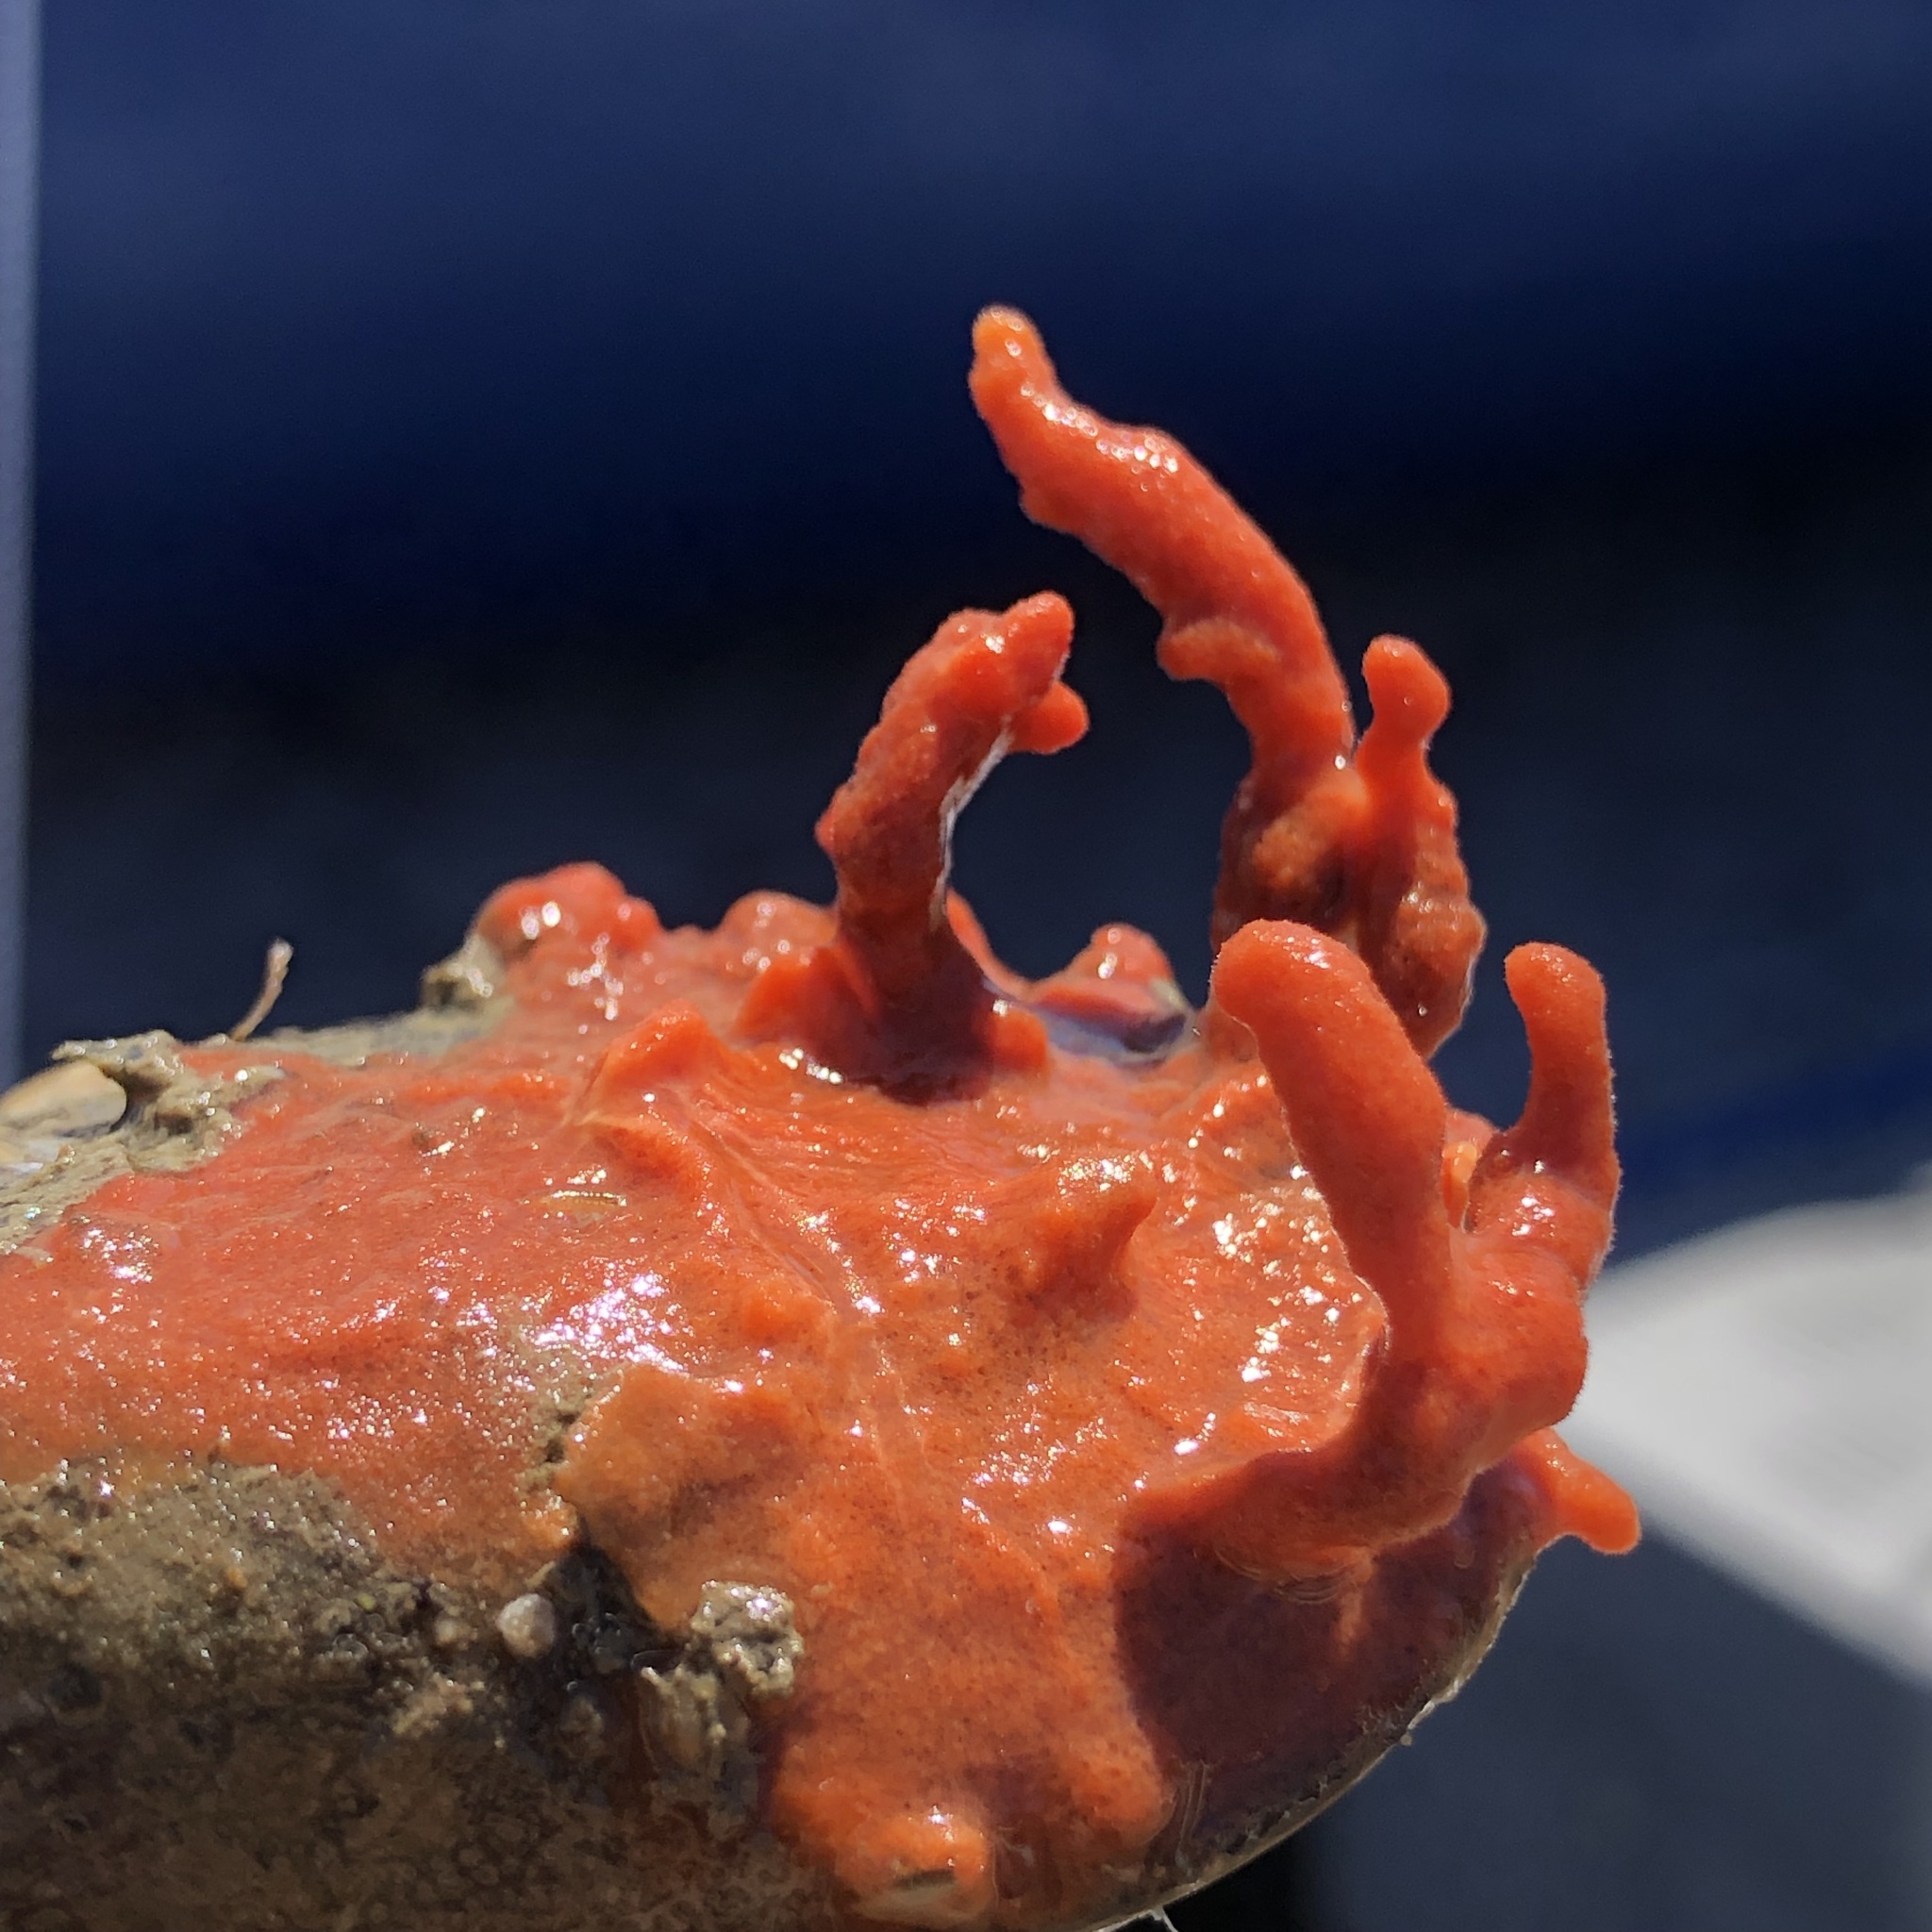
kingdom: Animalia
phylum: Porifera
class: Demospongiae
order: Poecilosclerida
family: Microcionidae
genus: Clathria
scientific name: Clathria prolifera
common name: Red beard sponge
